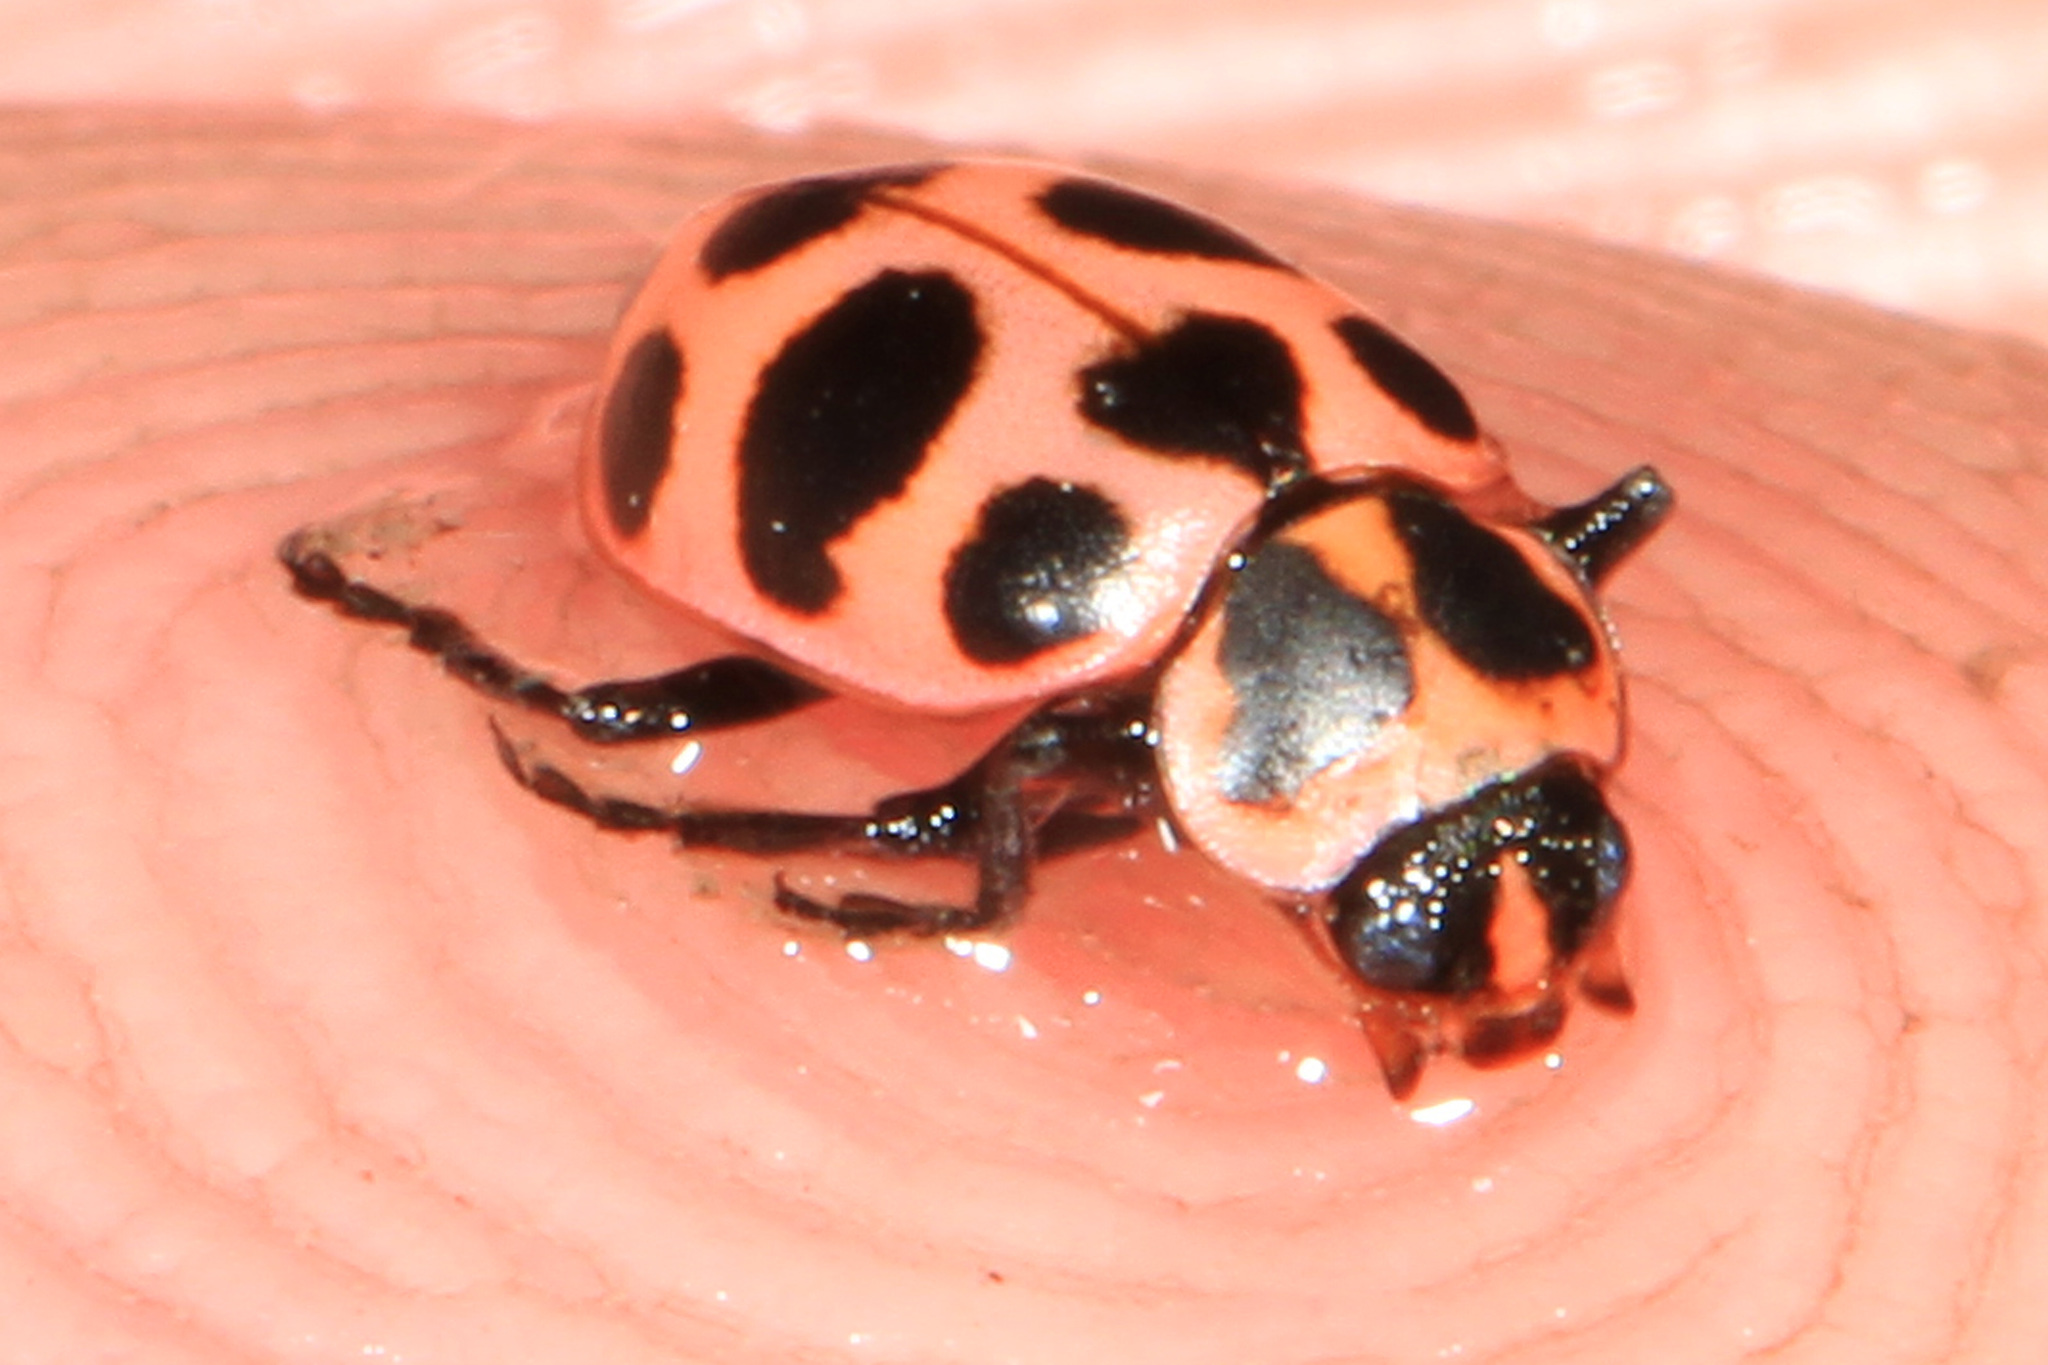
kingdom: Animalia
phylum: Arthropoda
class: Insecta
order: Coleoptera
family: Coccinellidae
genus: Coleomegilla
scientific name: Coleomegilla maculata
